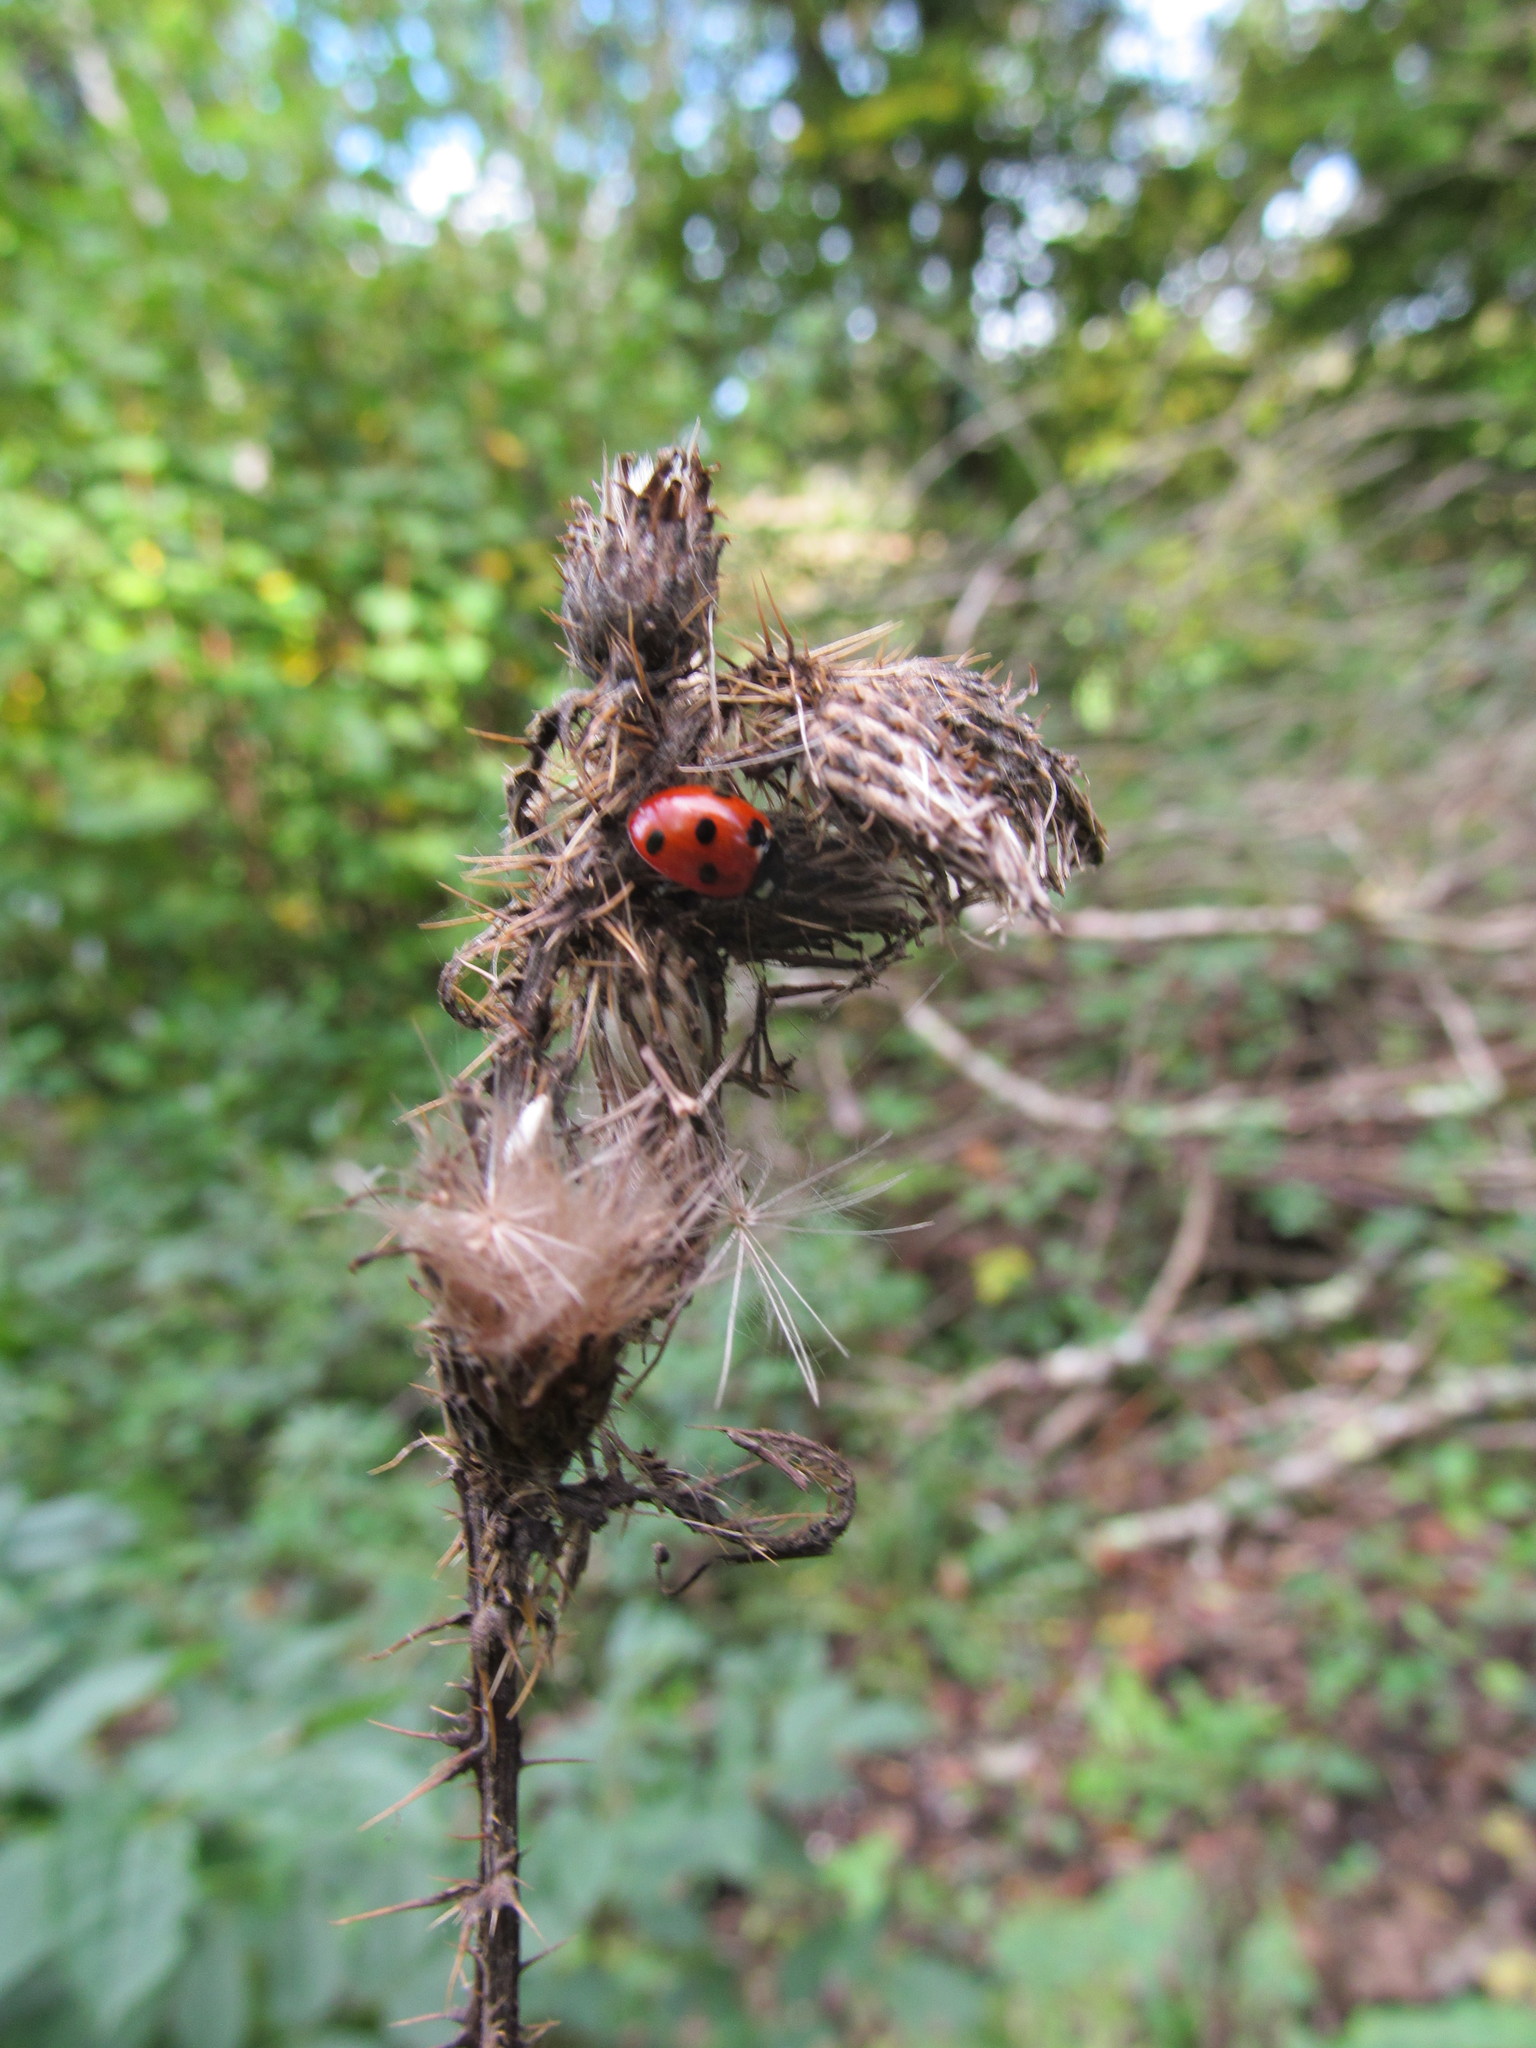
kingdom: Animalia
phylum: Arthropoda
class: Insecta
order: Coleoptera
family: Coccinellidae
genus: Coccinella
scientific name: Coccinella septempunctata
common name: Sevenspotted lady beetle
